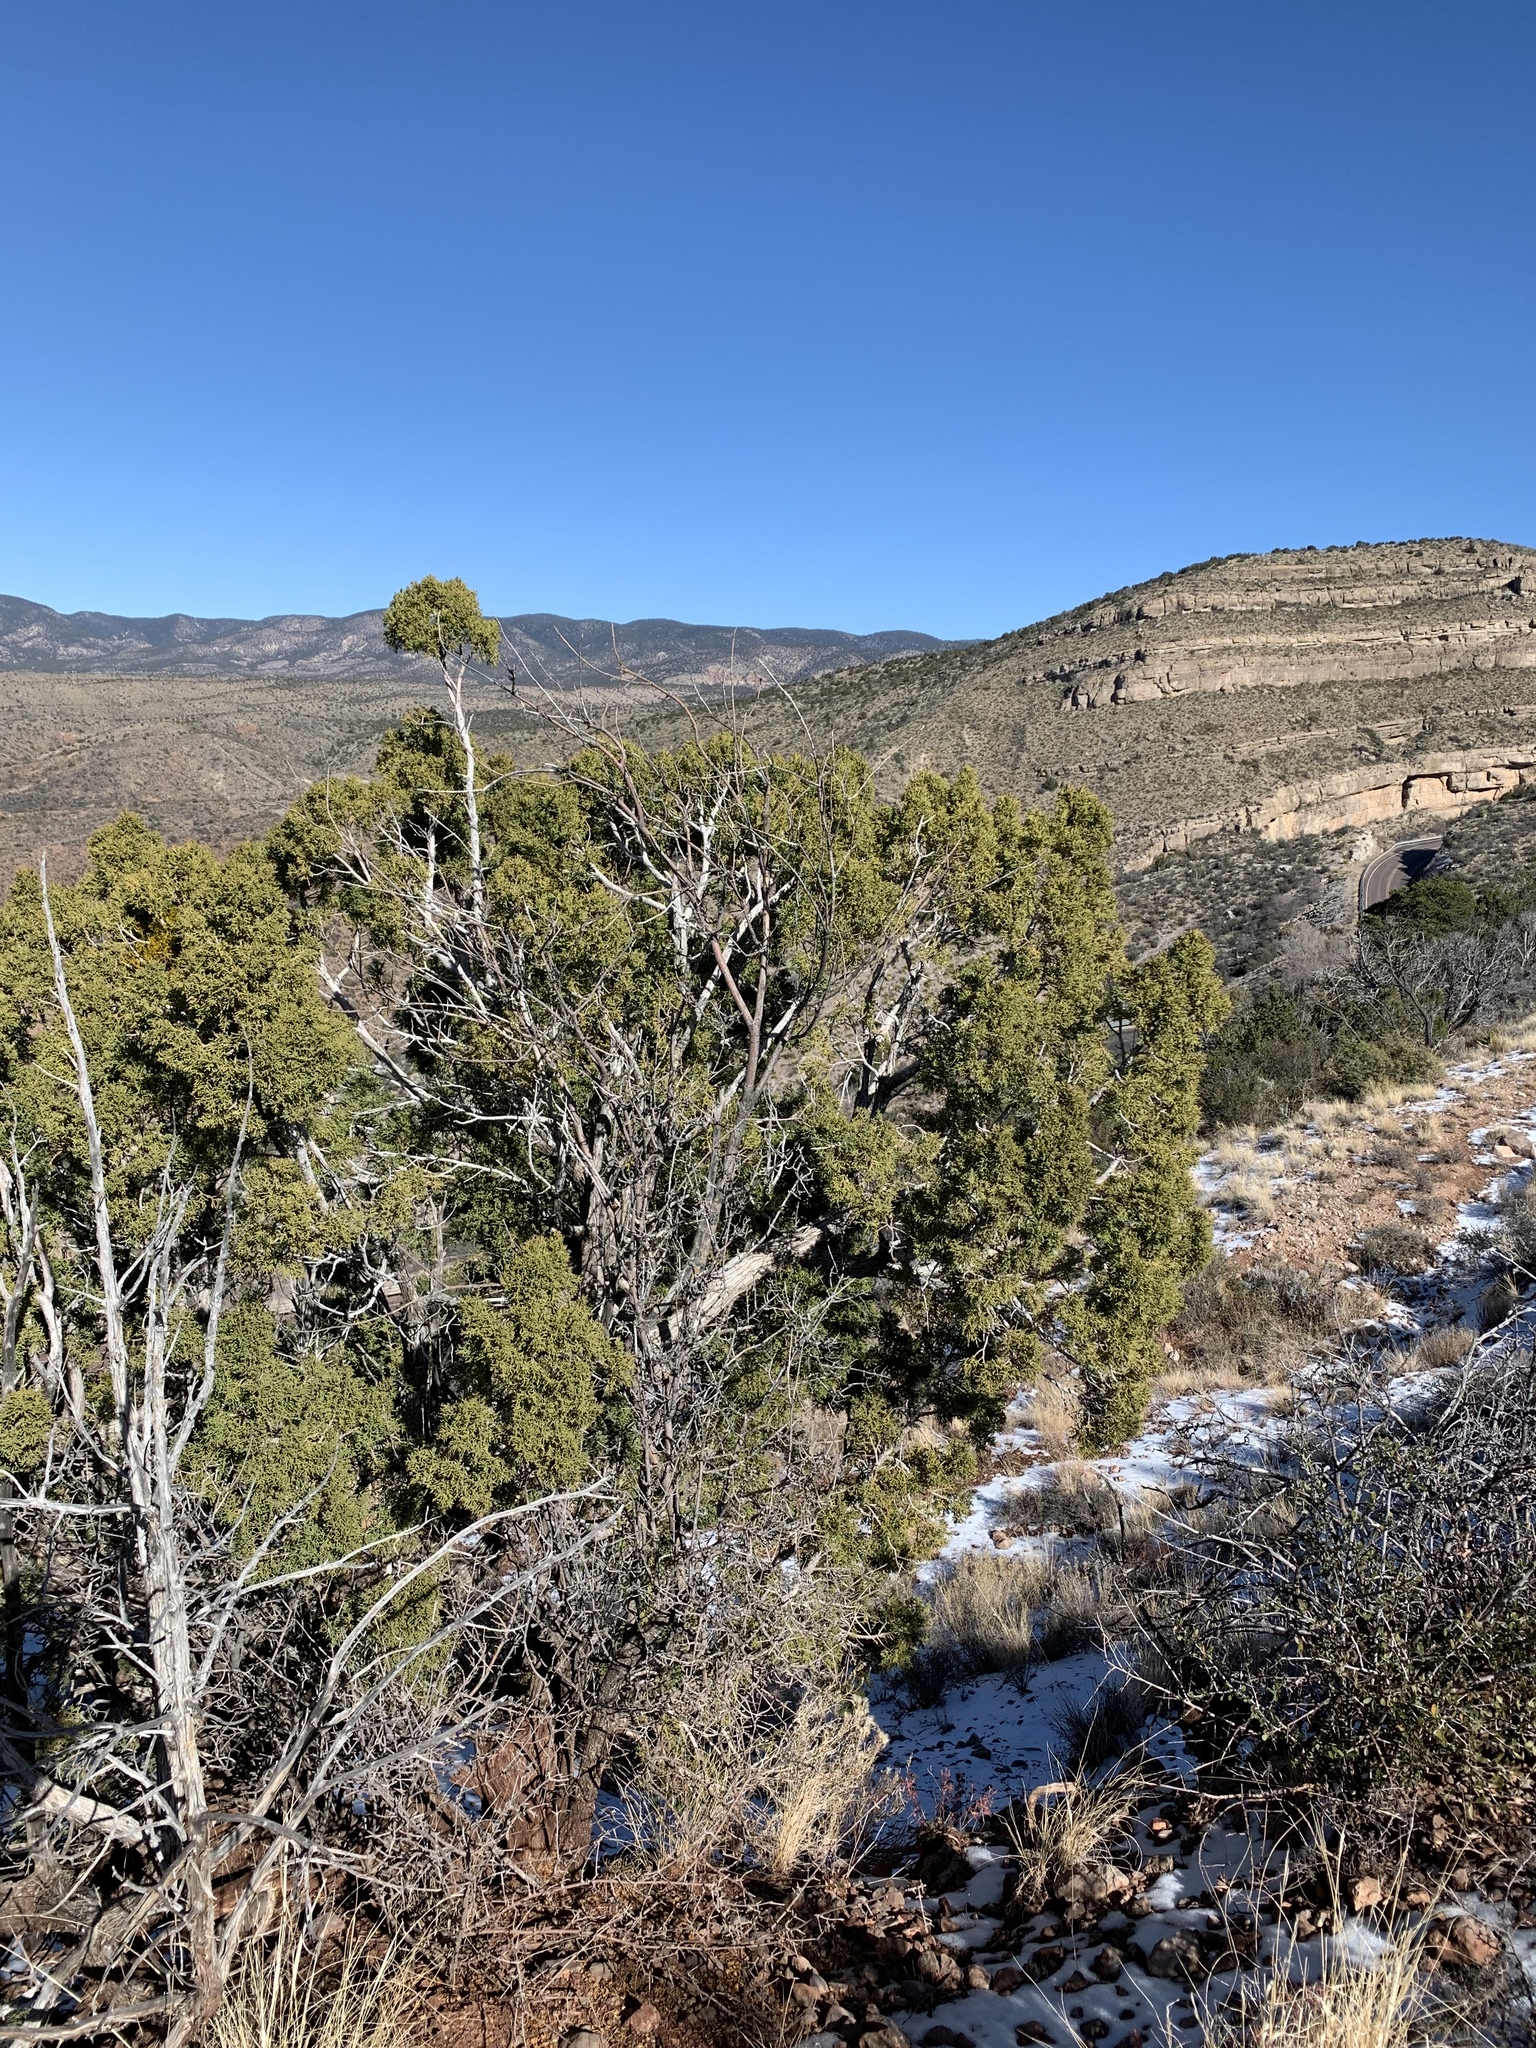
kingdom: Plantae
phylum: Tracheophyta
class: Pinopsida
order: Pinales
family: Cupressaceae
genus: Juniperus
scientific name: Juniperus monosperma
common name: One-seed juniper
